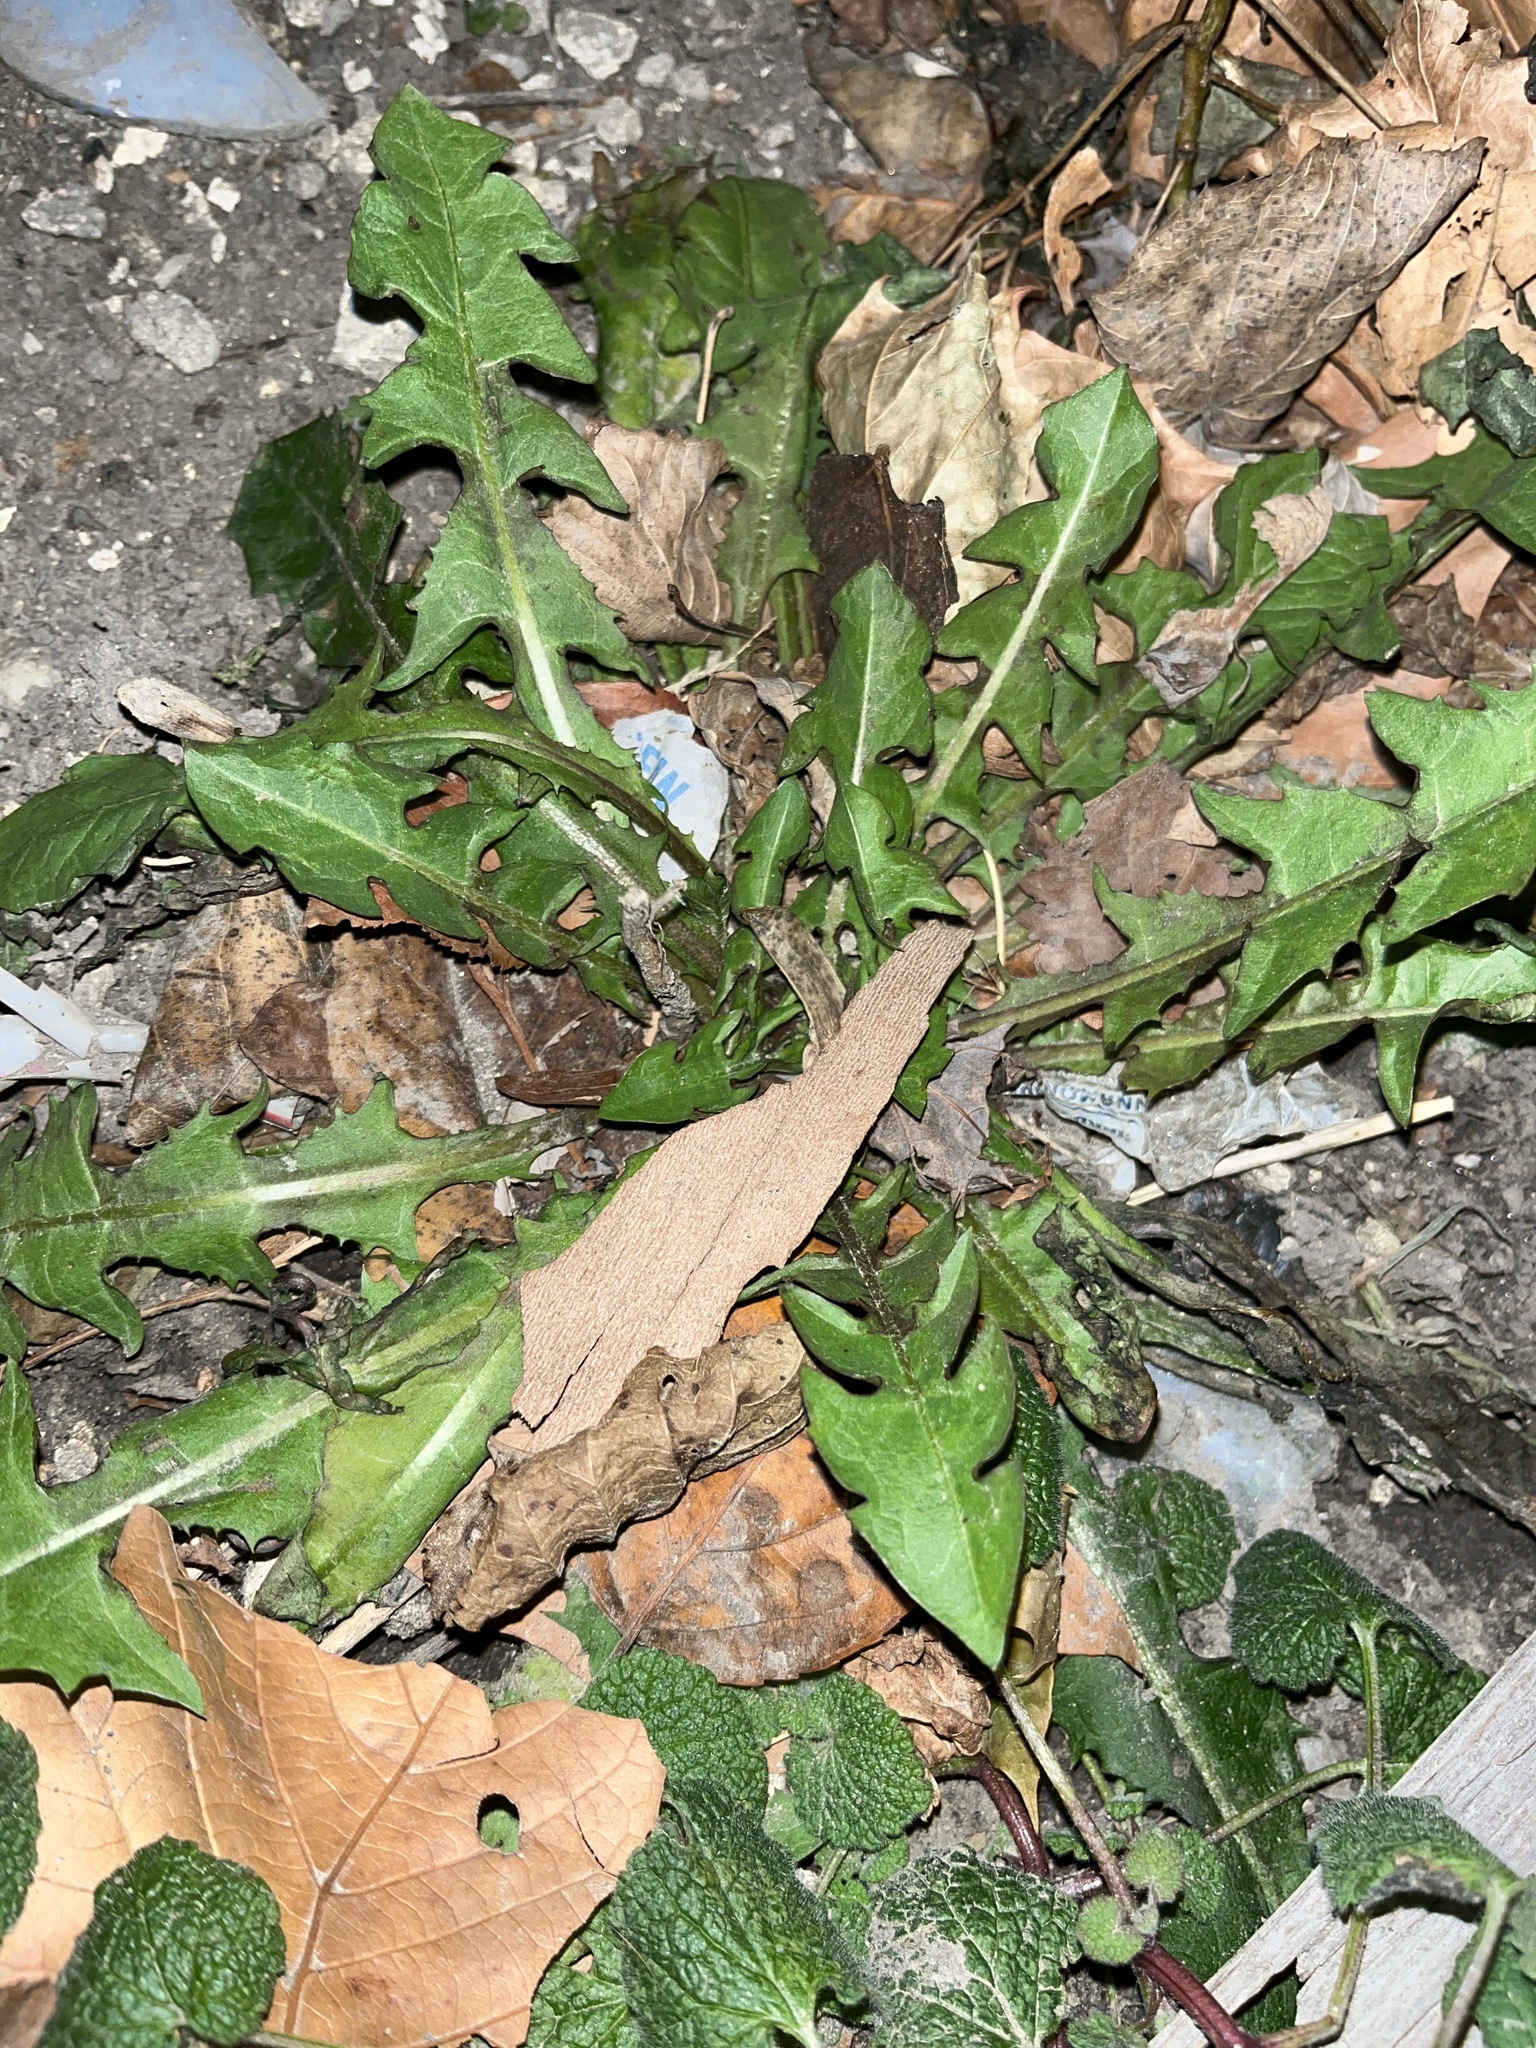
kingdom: Plantae
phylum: Tracheophyta
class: Magnoliopsida
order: Asterales
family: Asteraceae
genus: Taraxacum
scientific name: Taraxacum
